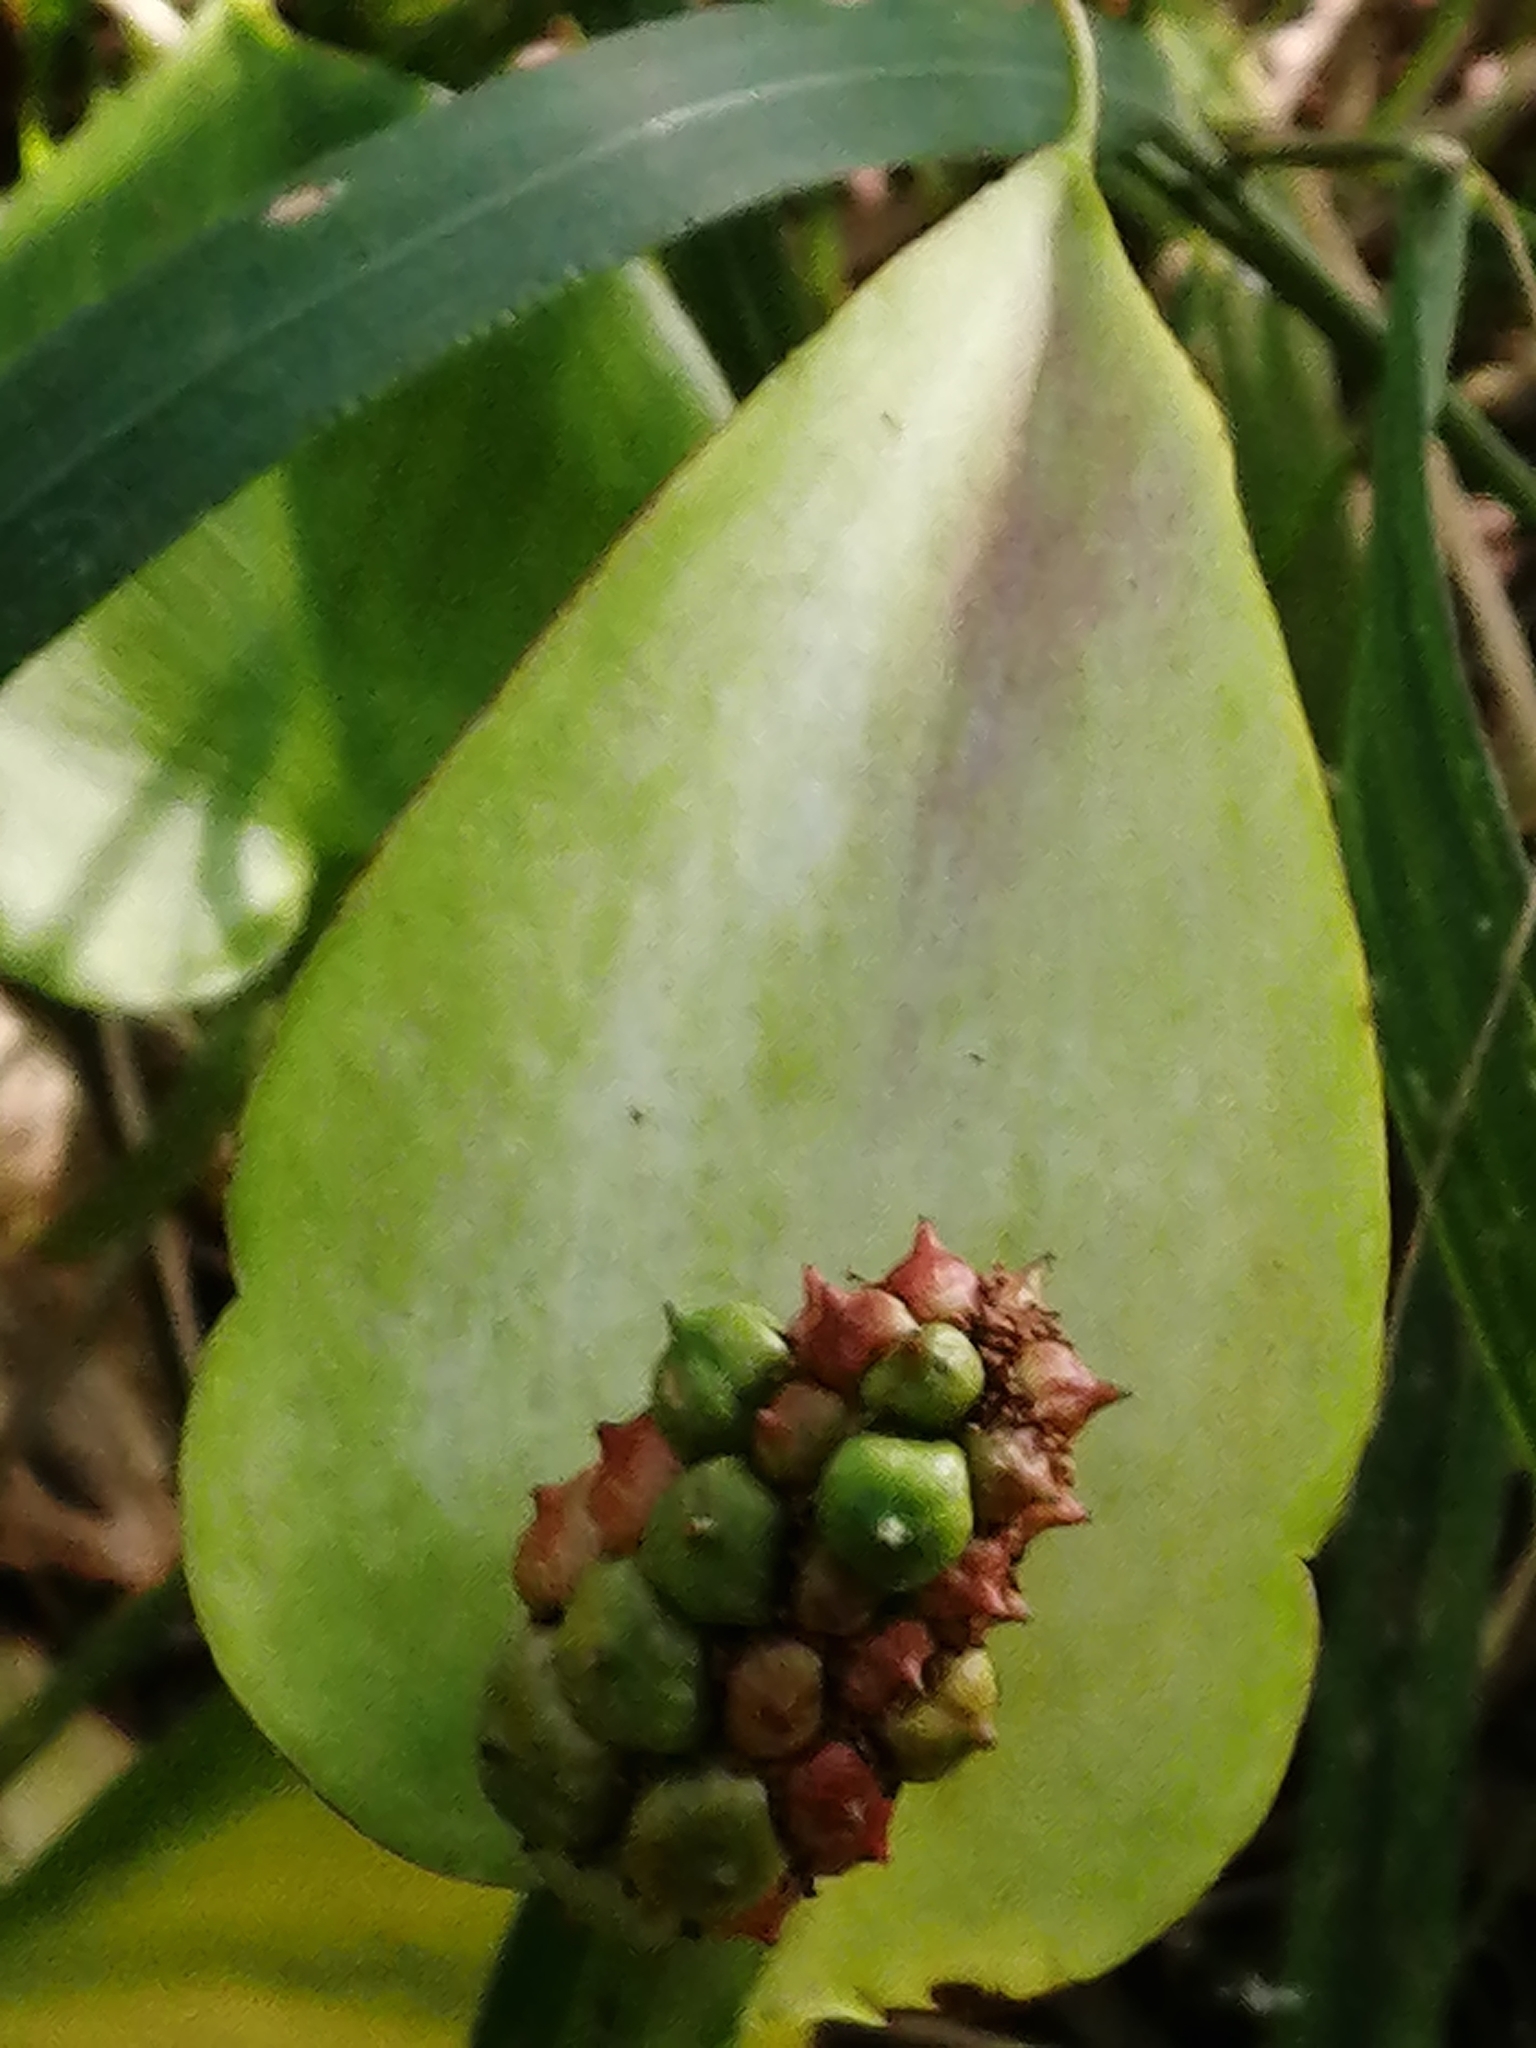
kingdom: Plantae
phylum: Tracheophyta
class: Liliopsida
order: Alismatales
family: Araceae
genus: Calla
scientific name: Calla palustris
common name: Bog arum
